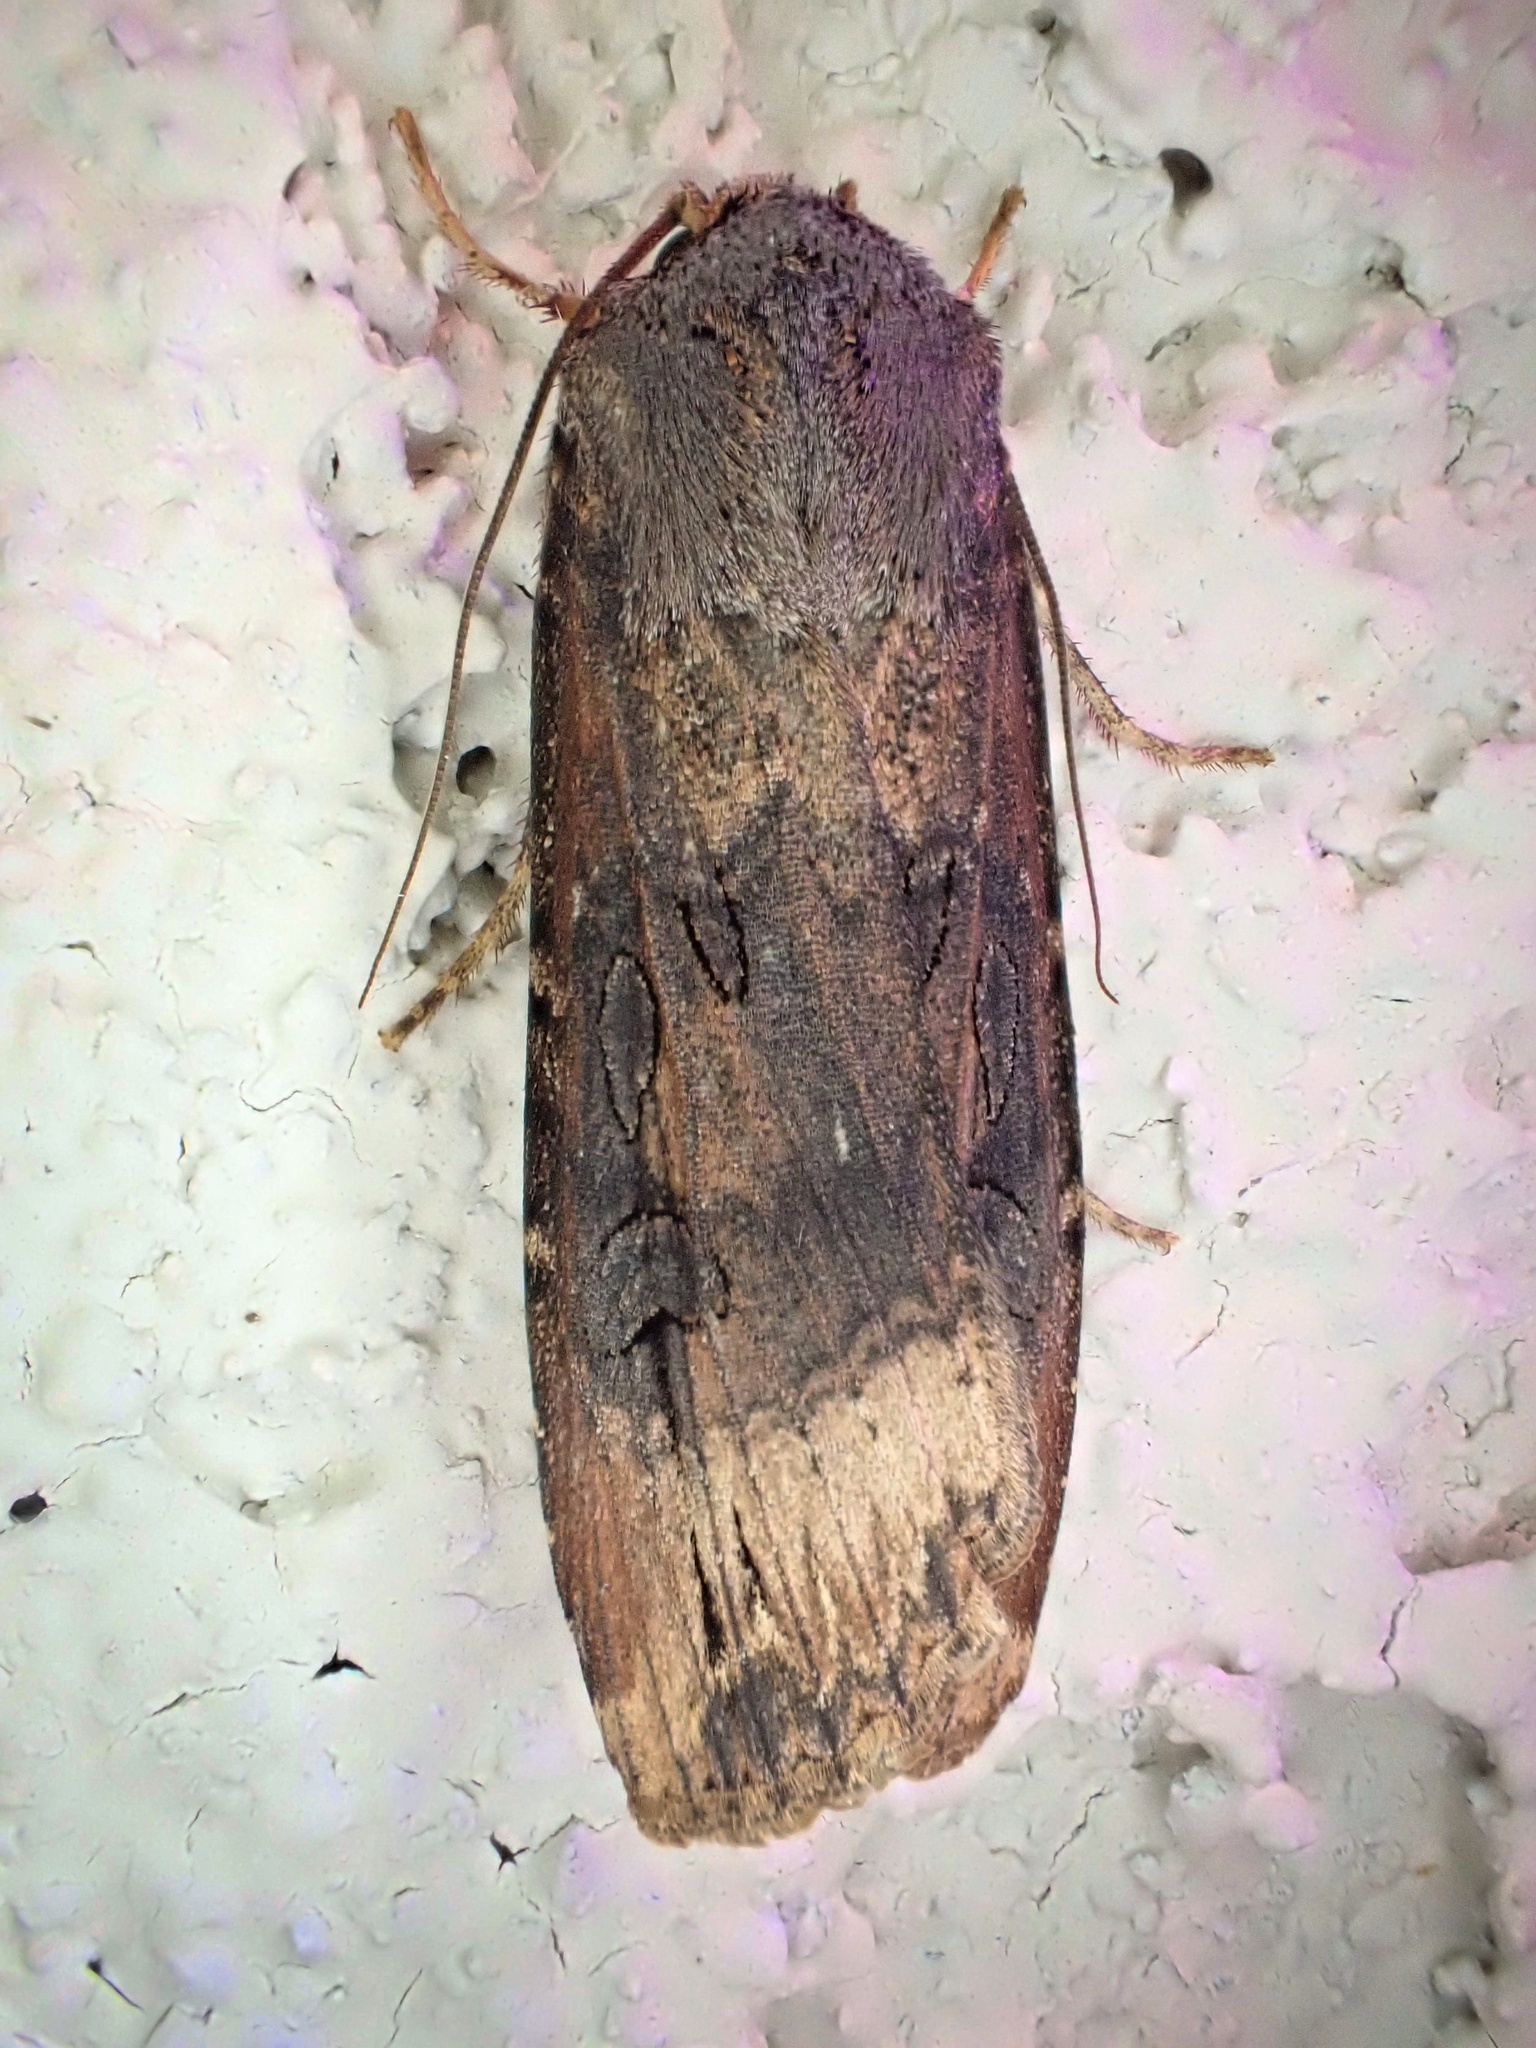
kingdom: Animalia
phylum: Arthropoda
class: Insecta
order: Lepidoptera
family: Noctuidae
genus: Agrotis
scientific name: Agrotis ipsilon
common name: Dark sword-grass
